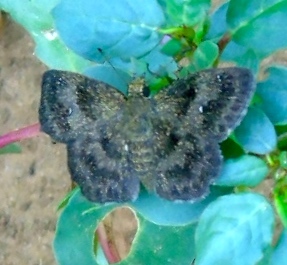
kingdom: Animalia
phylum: Arthropoda
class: Insecta
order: Lepidoptera
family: Hesperiidae
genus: Staphylus
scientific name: Staphylus
